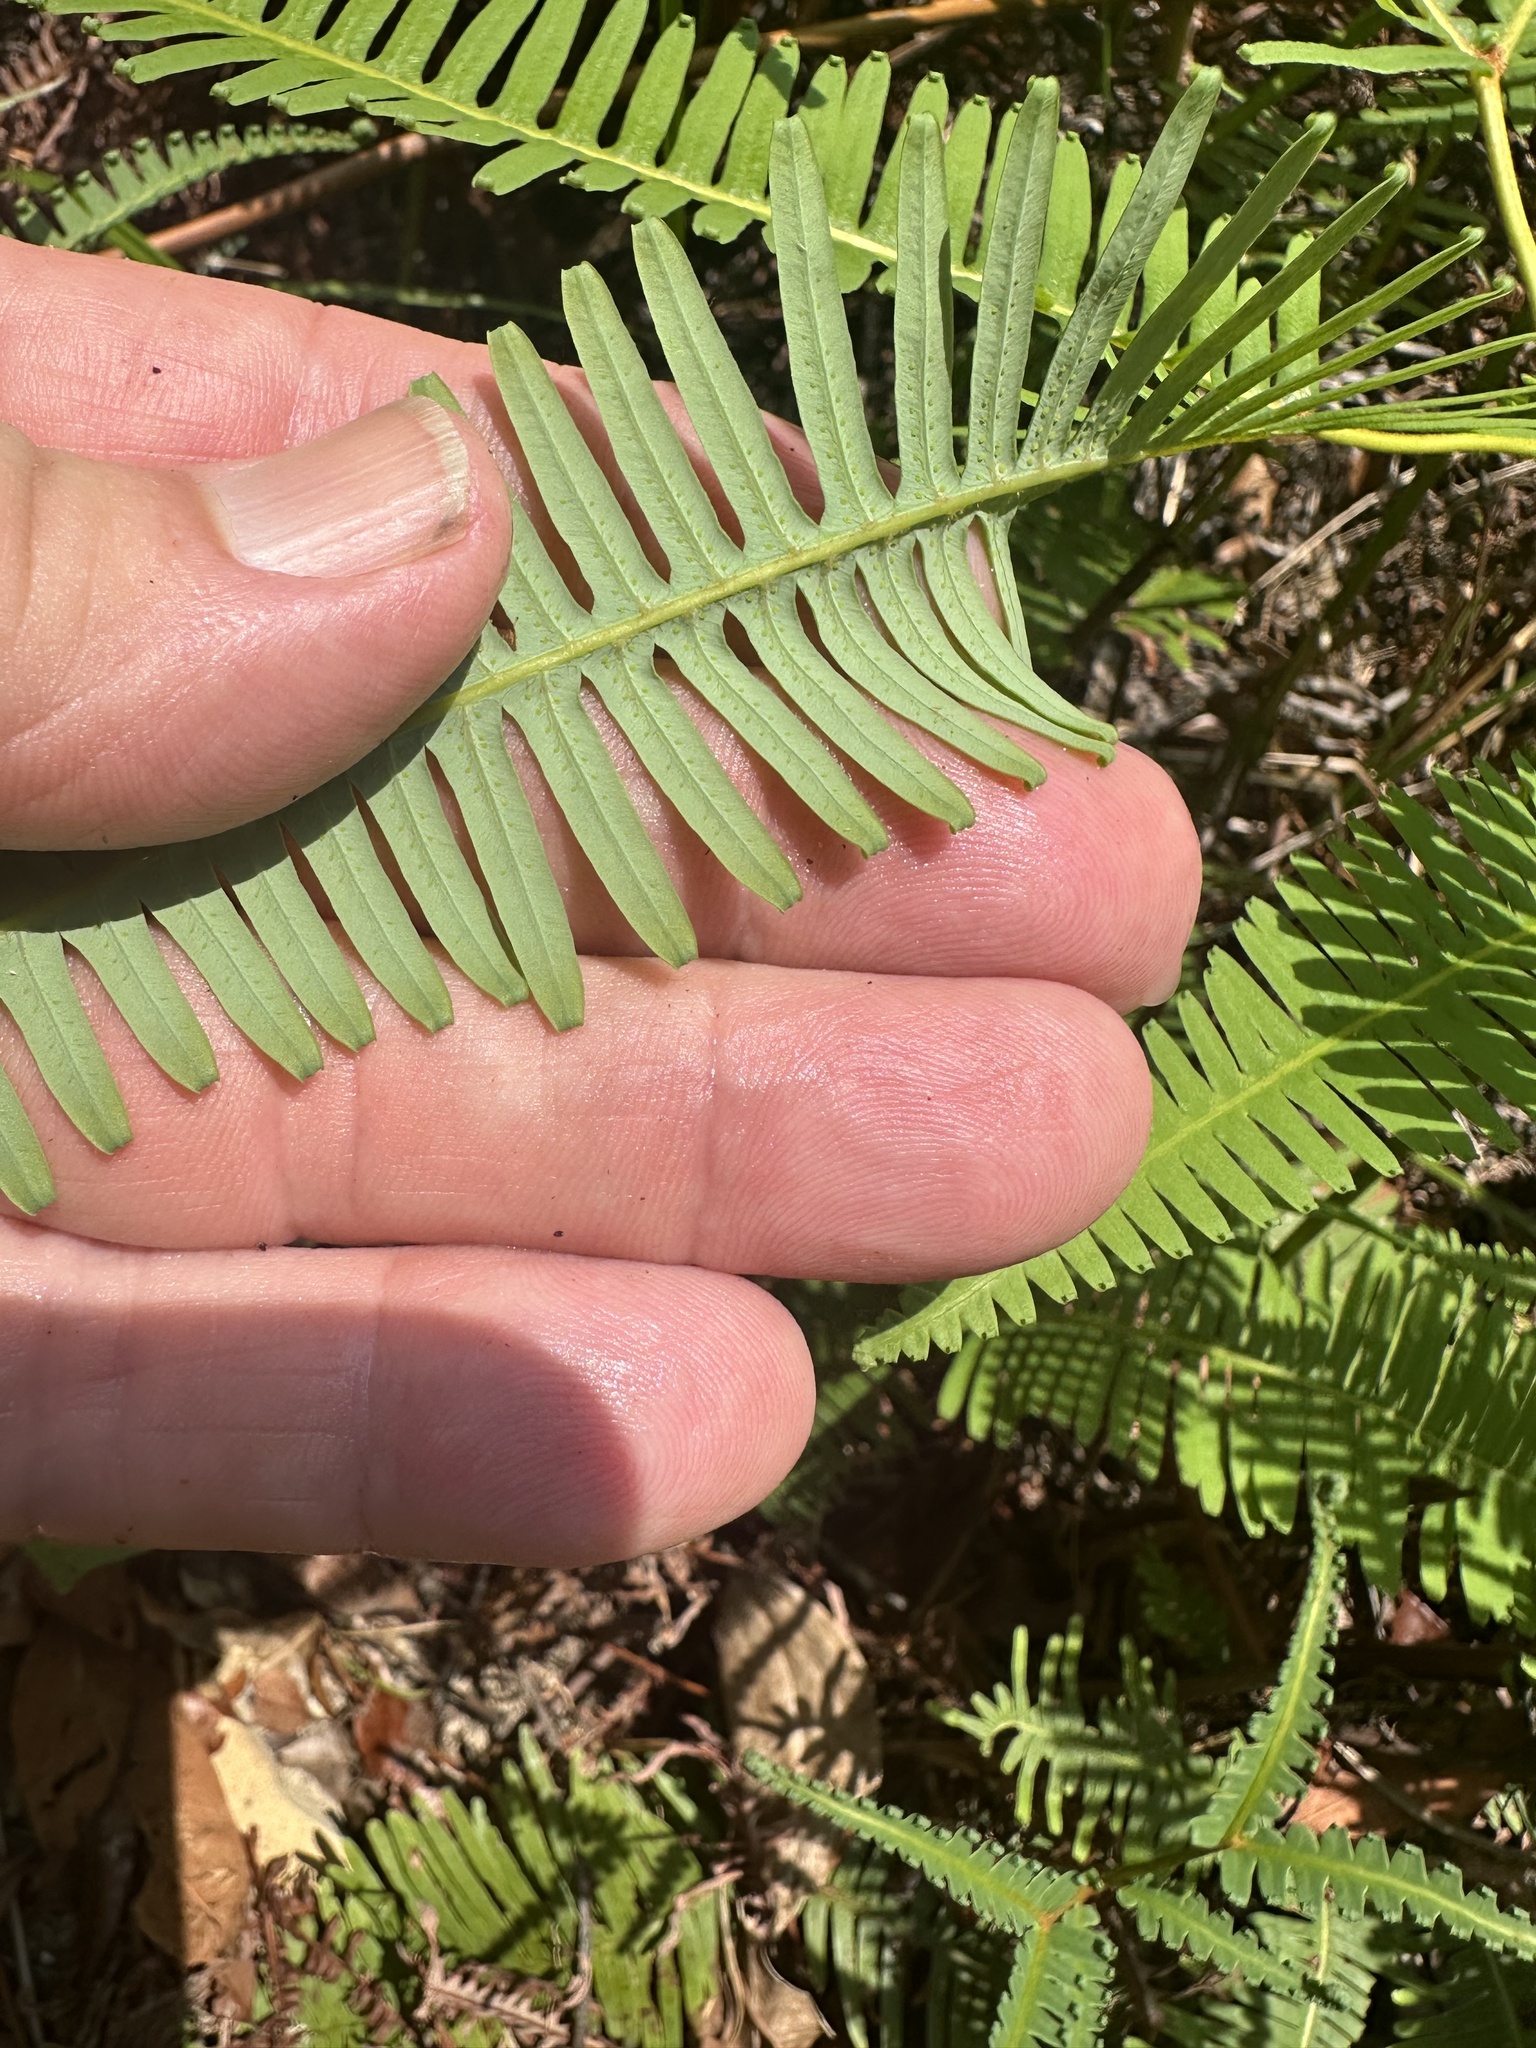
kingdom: Plantae
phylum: Tracheophyta
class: Polypodiopsida
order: Gleicheniales
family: Gleicheniaceae
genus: Dicranopteris
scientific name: Dicranopteris linearis
